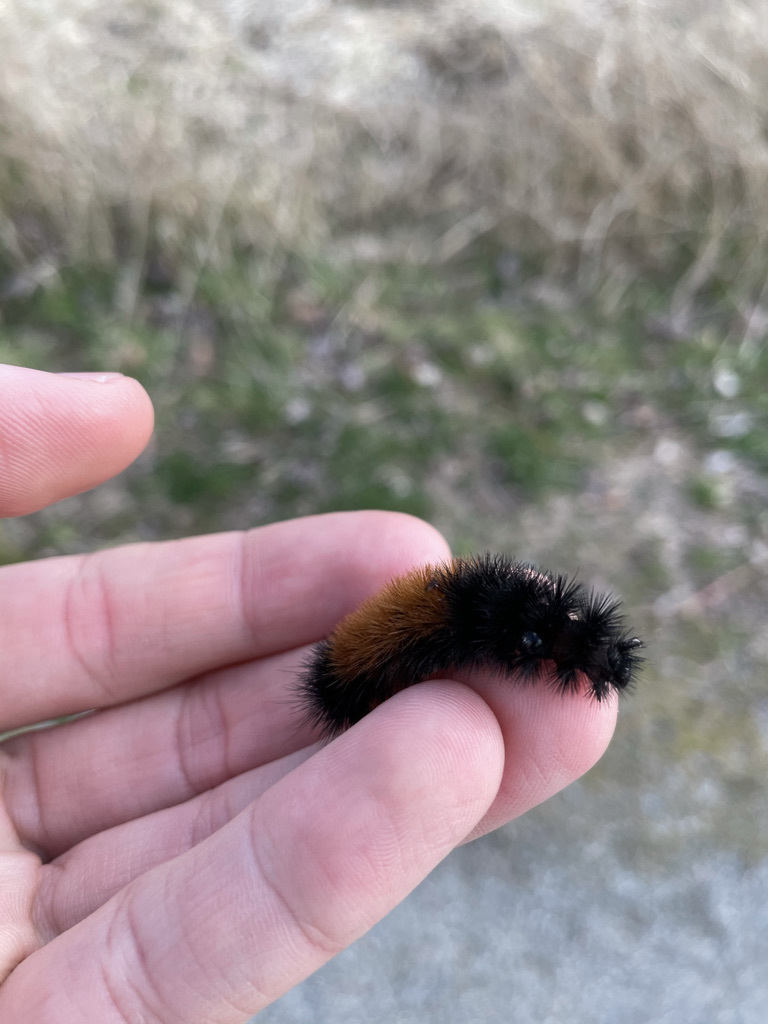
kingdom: Animalia
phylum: Arthropoda
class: Insecta
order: Lepidoptera
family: Erebidae
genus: Pyrrharctia
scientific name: Pyrrharctia isabella
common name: Isabella tiger moth
